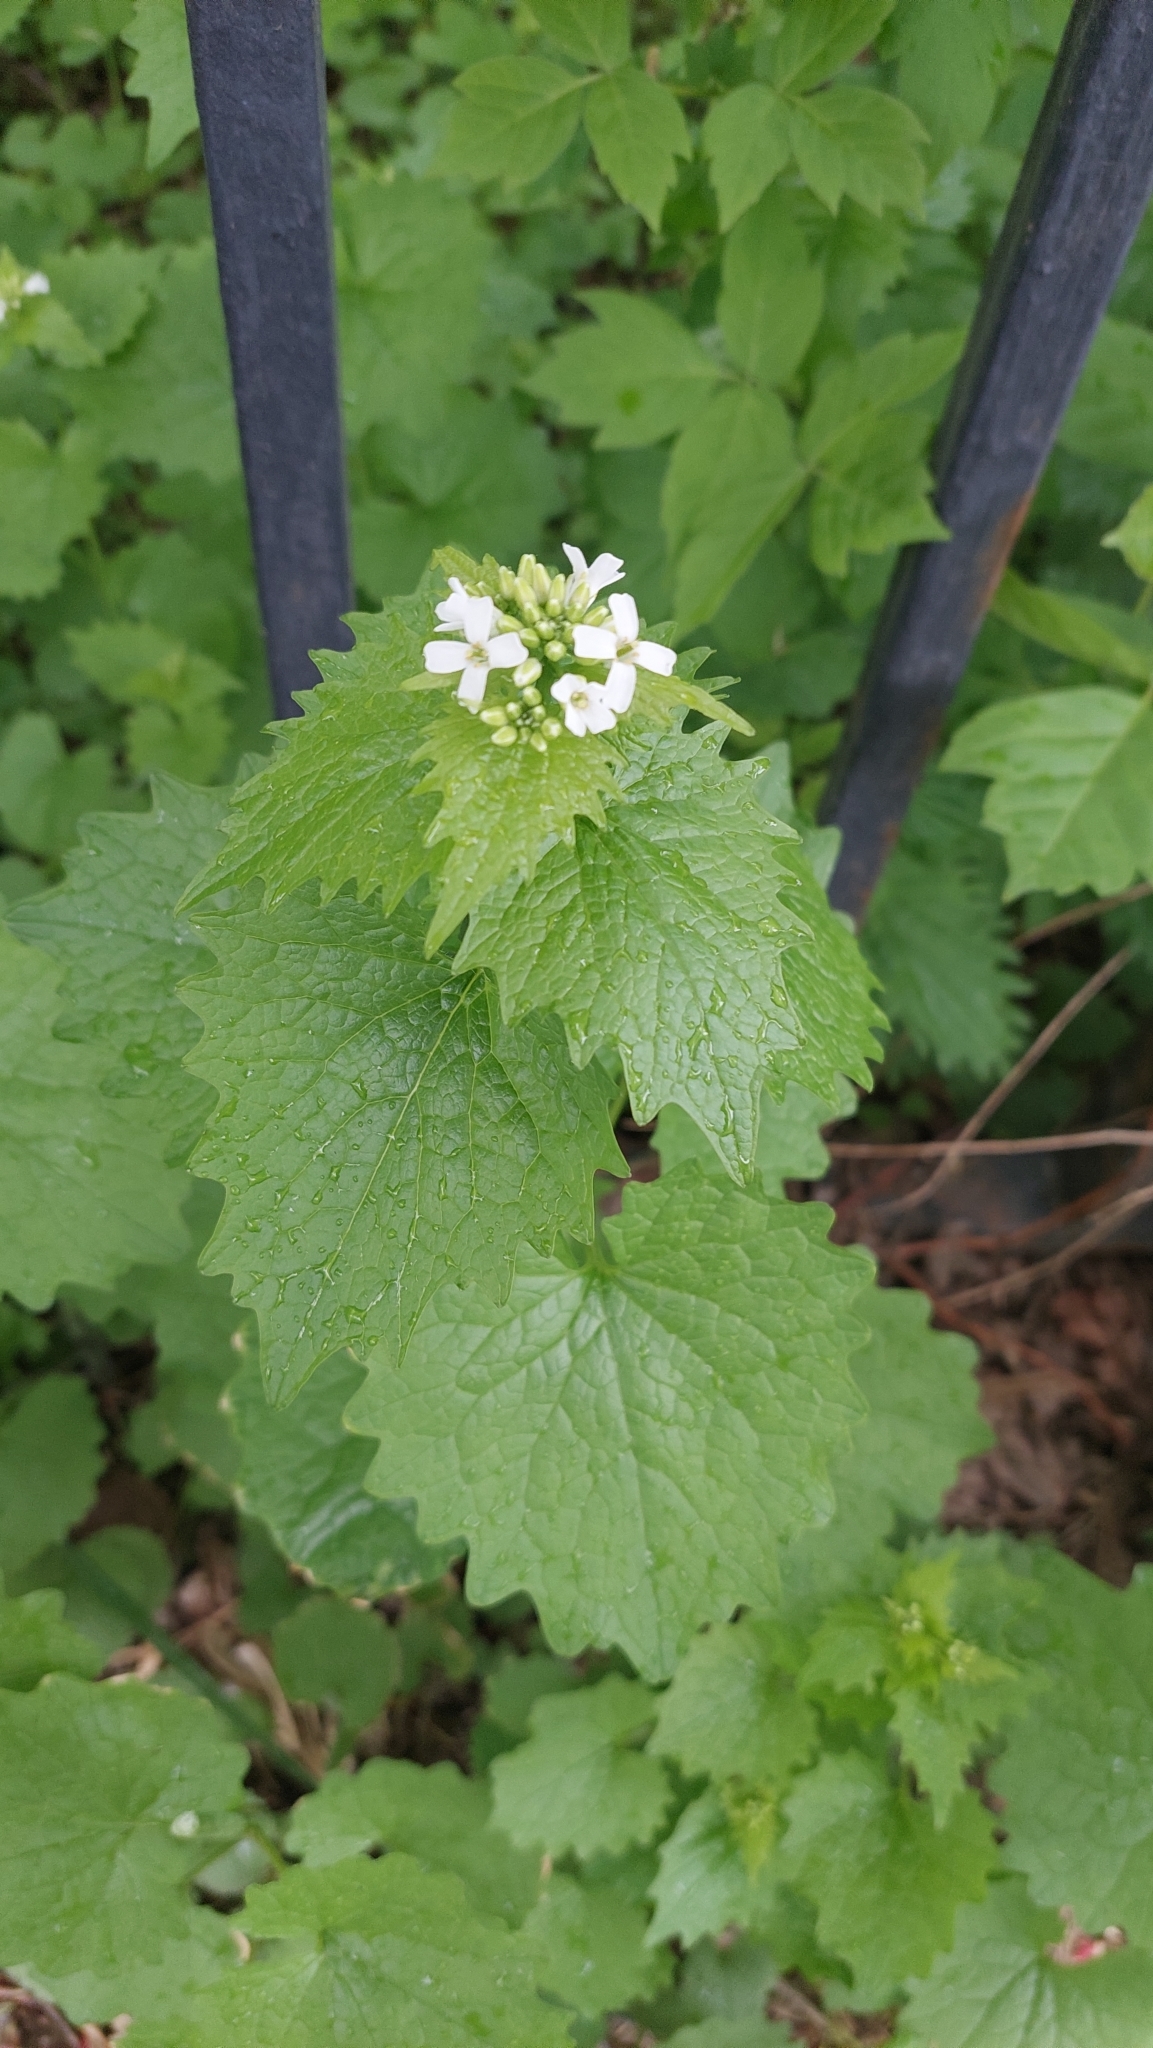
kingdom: Plantae
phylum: Tracheophyta
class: Magnoliopsida
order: Brassicales
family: Brassicaceae
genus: Alliaria
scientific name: Alliaria petiolata
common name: Garlic mustard
